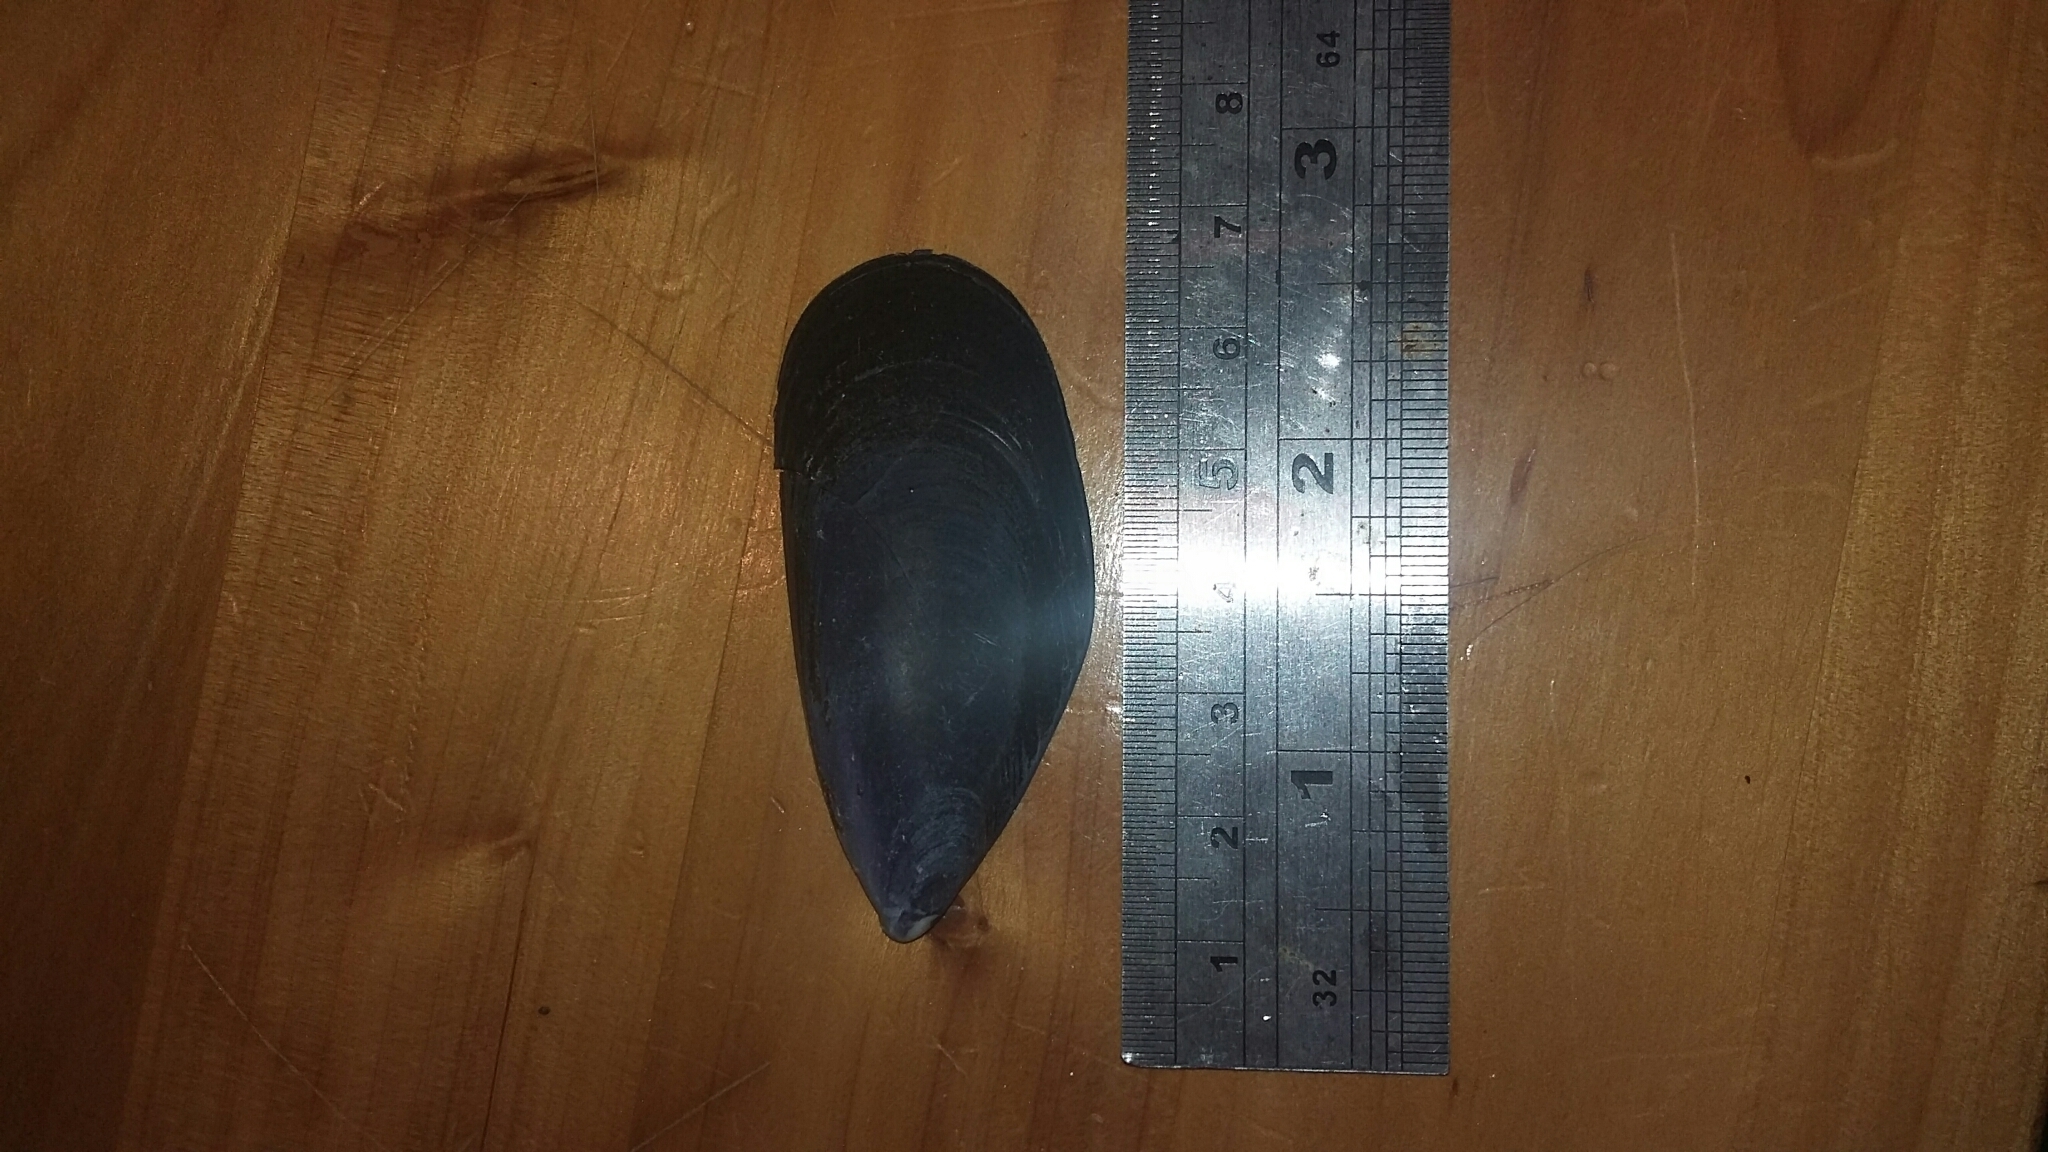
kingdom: Animalia
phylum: Mollusca
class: Bivalvia
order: Mytilida
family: Mytilidae
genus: Mytilus
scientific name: Mytilus planulatus
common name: Australian mussel
